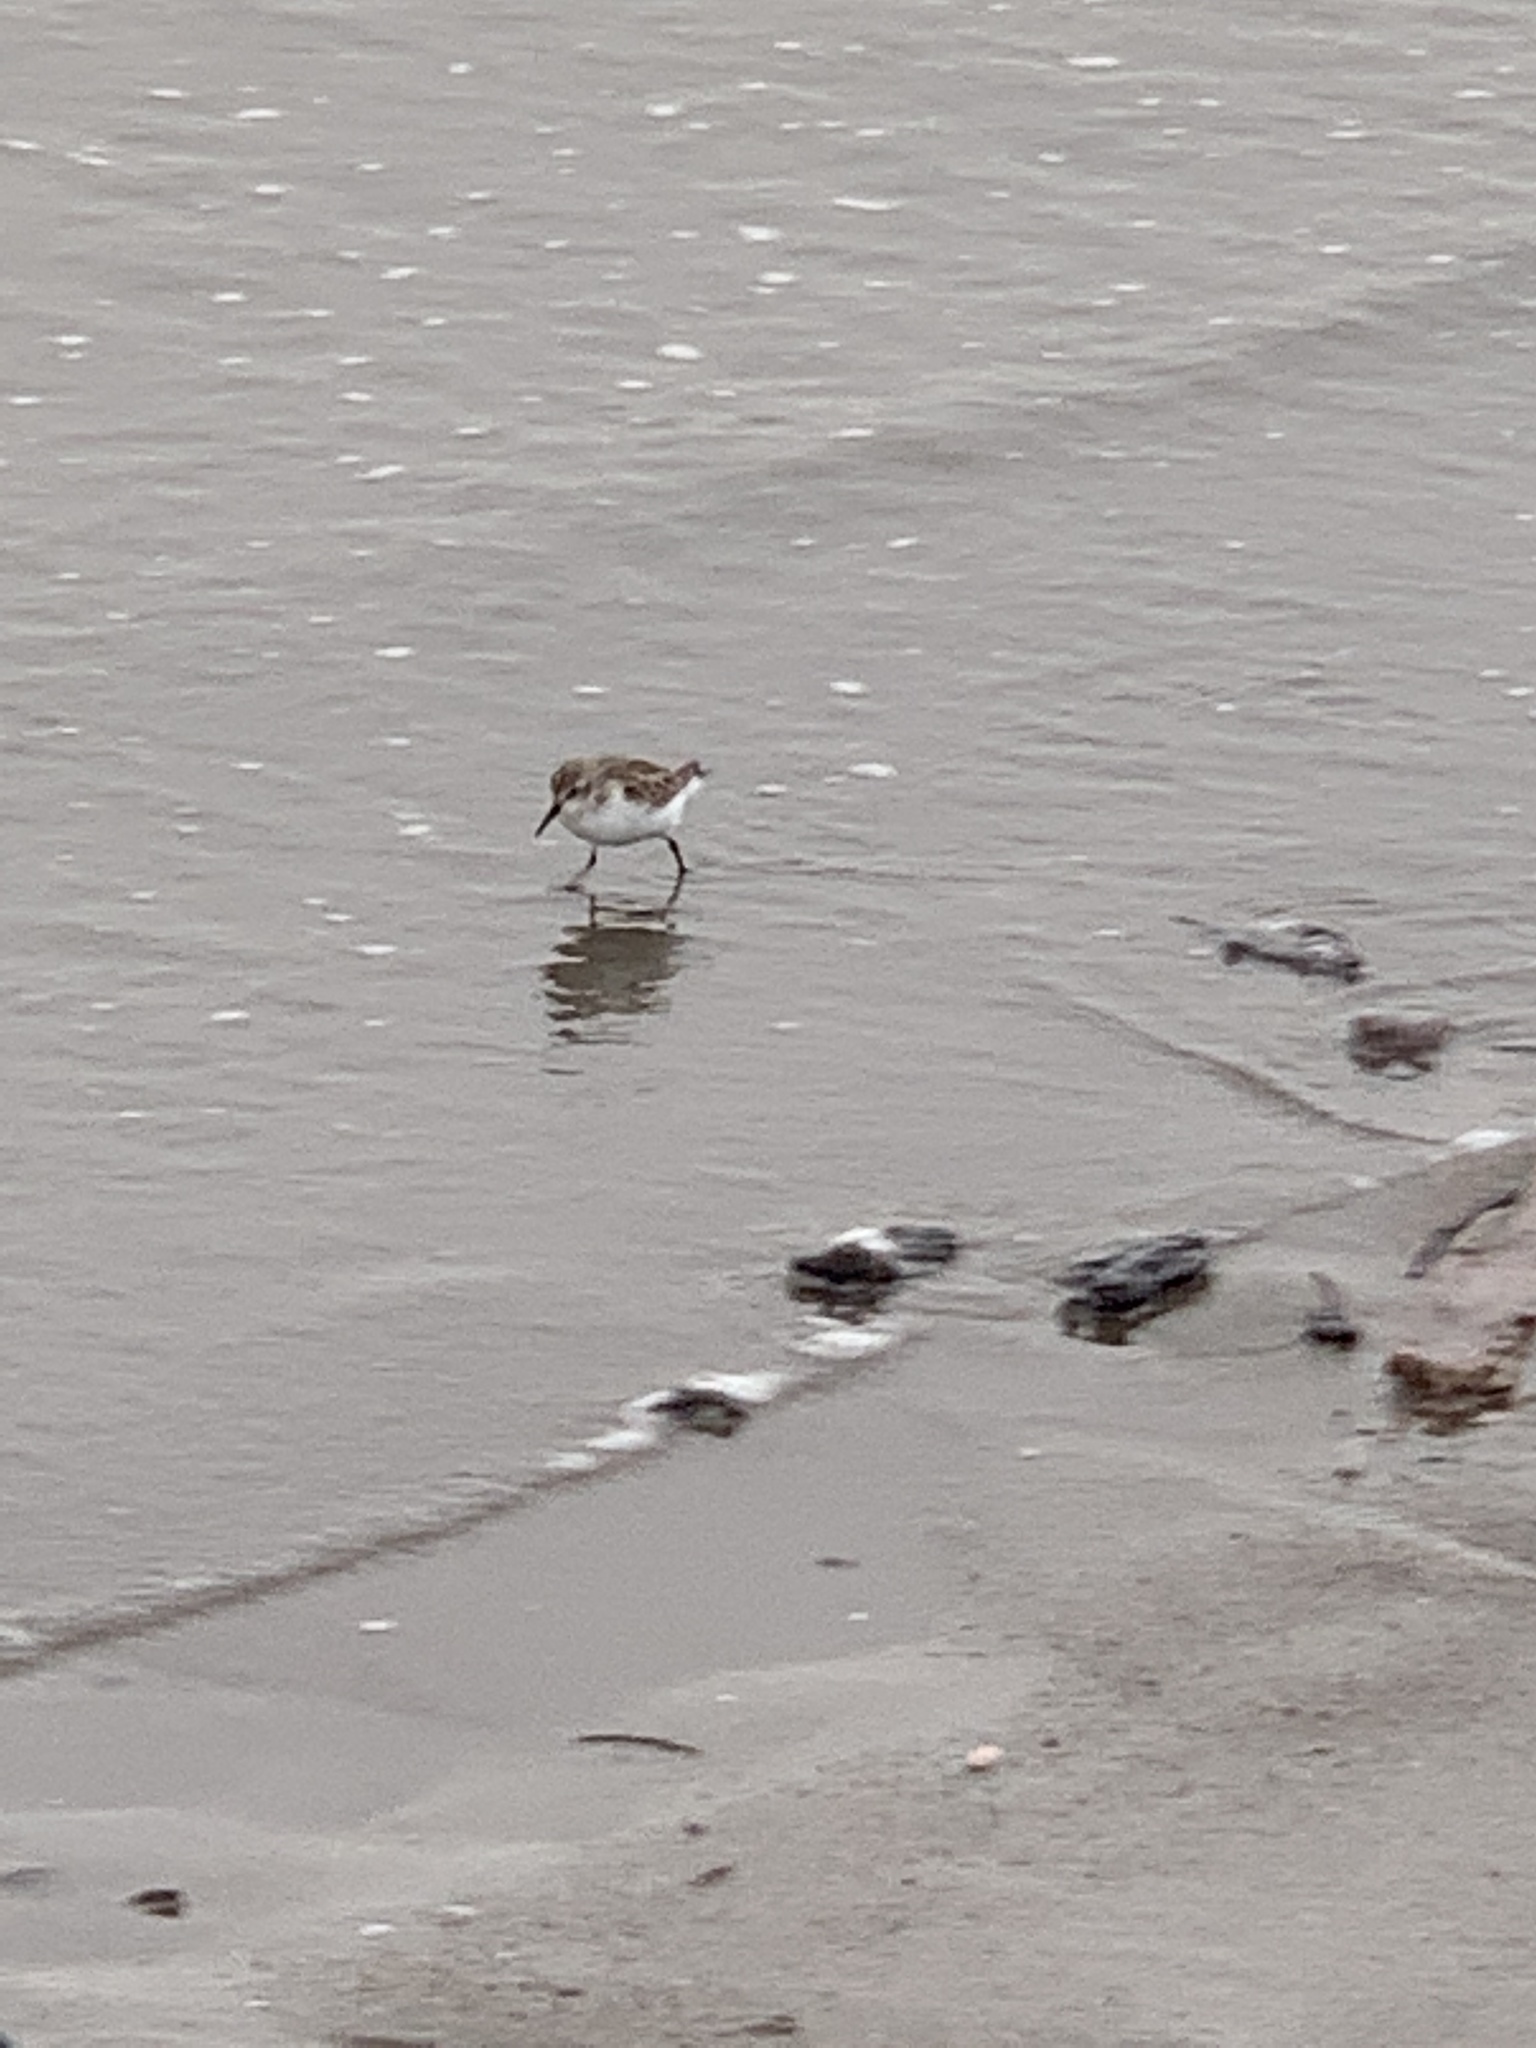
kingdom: Animalia
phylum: Chordata
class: Aves
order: Charadriiformes
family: Scolopacidae
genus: Calidris
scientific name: Calidris mauri
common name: Western sandpiper
